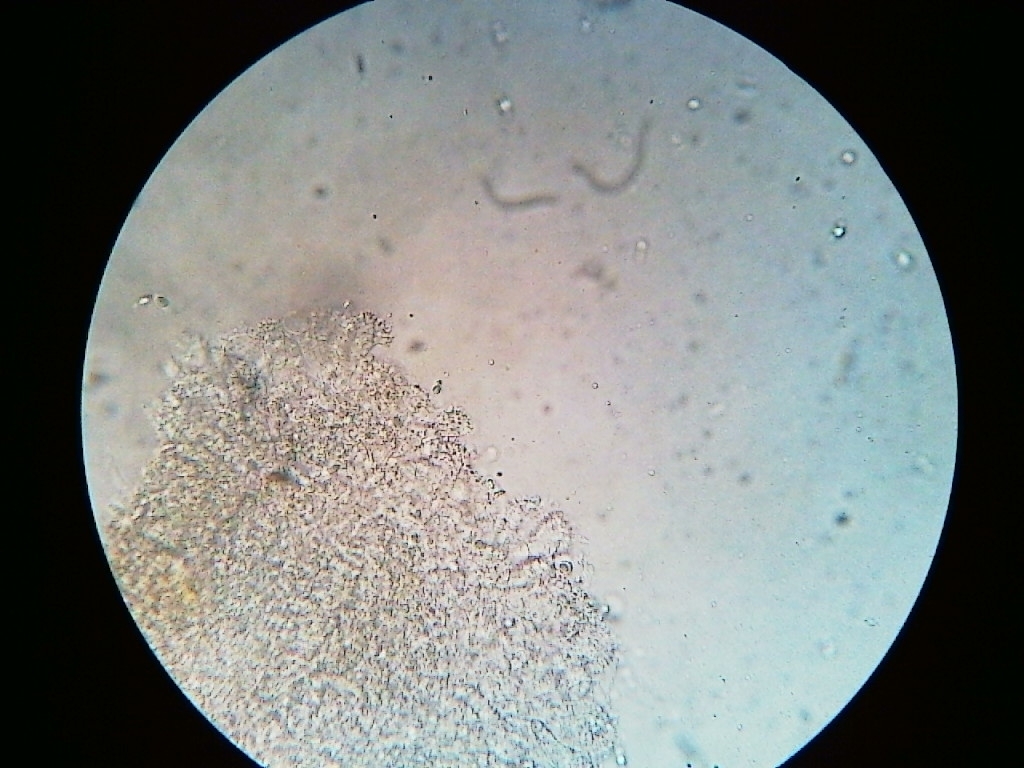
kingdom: Fungi
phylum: Basidiomycota
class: Agaricomycetes
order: Agaricales
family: Mycenaceae
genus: Mycena
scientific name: Mycena filopes
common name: Iodine bonnet
